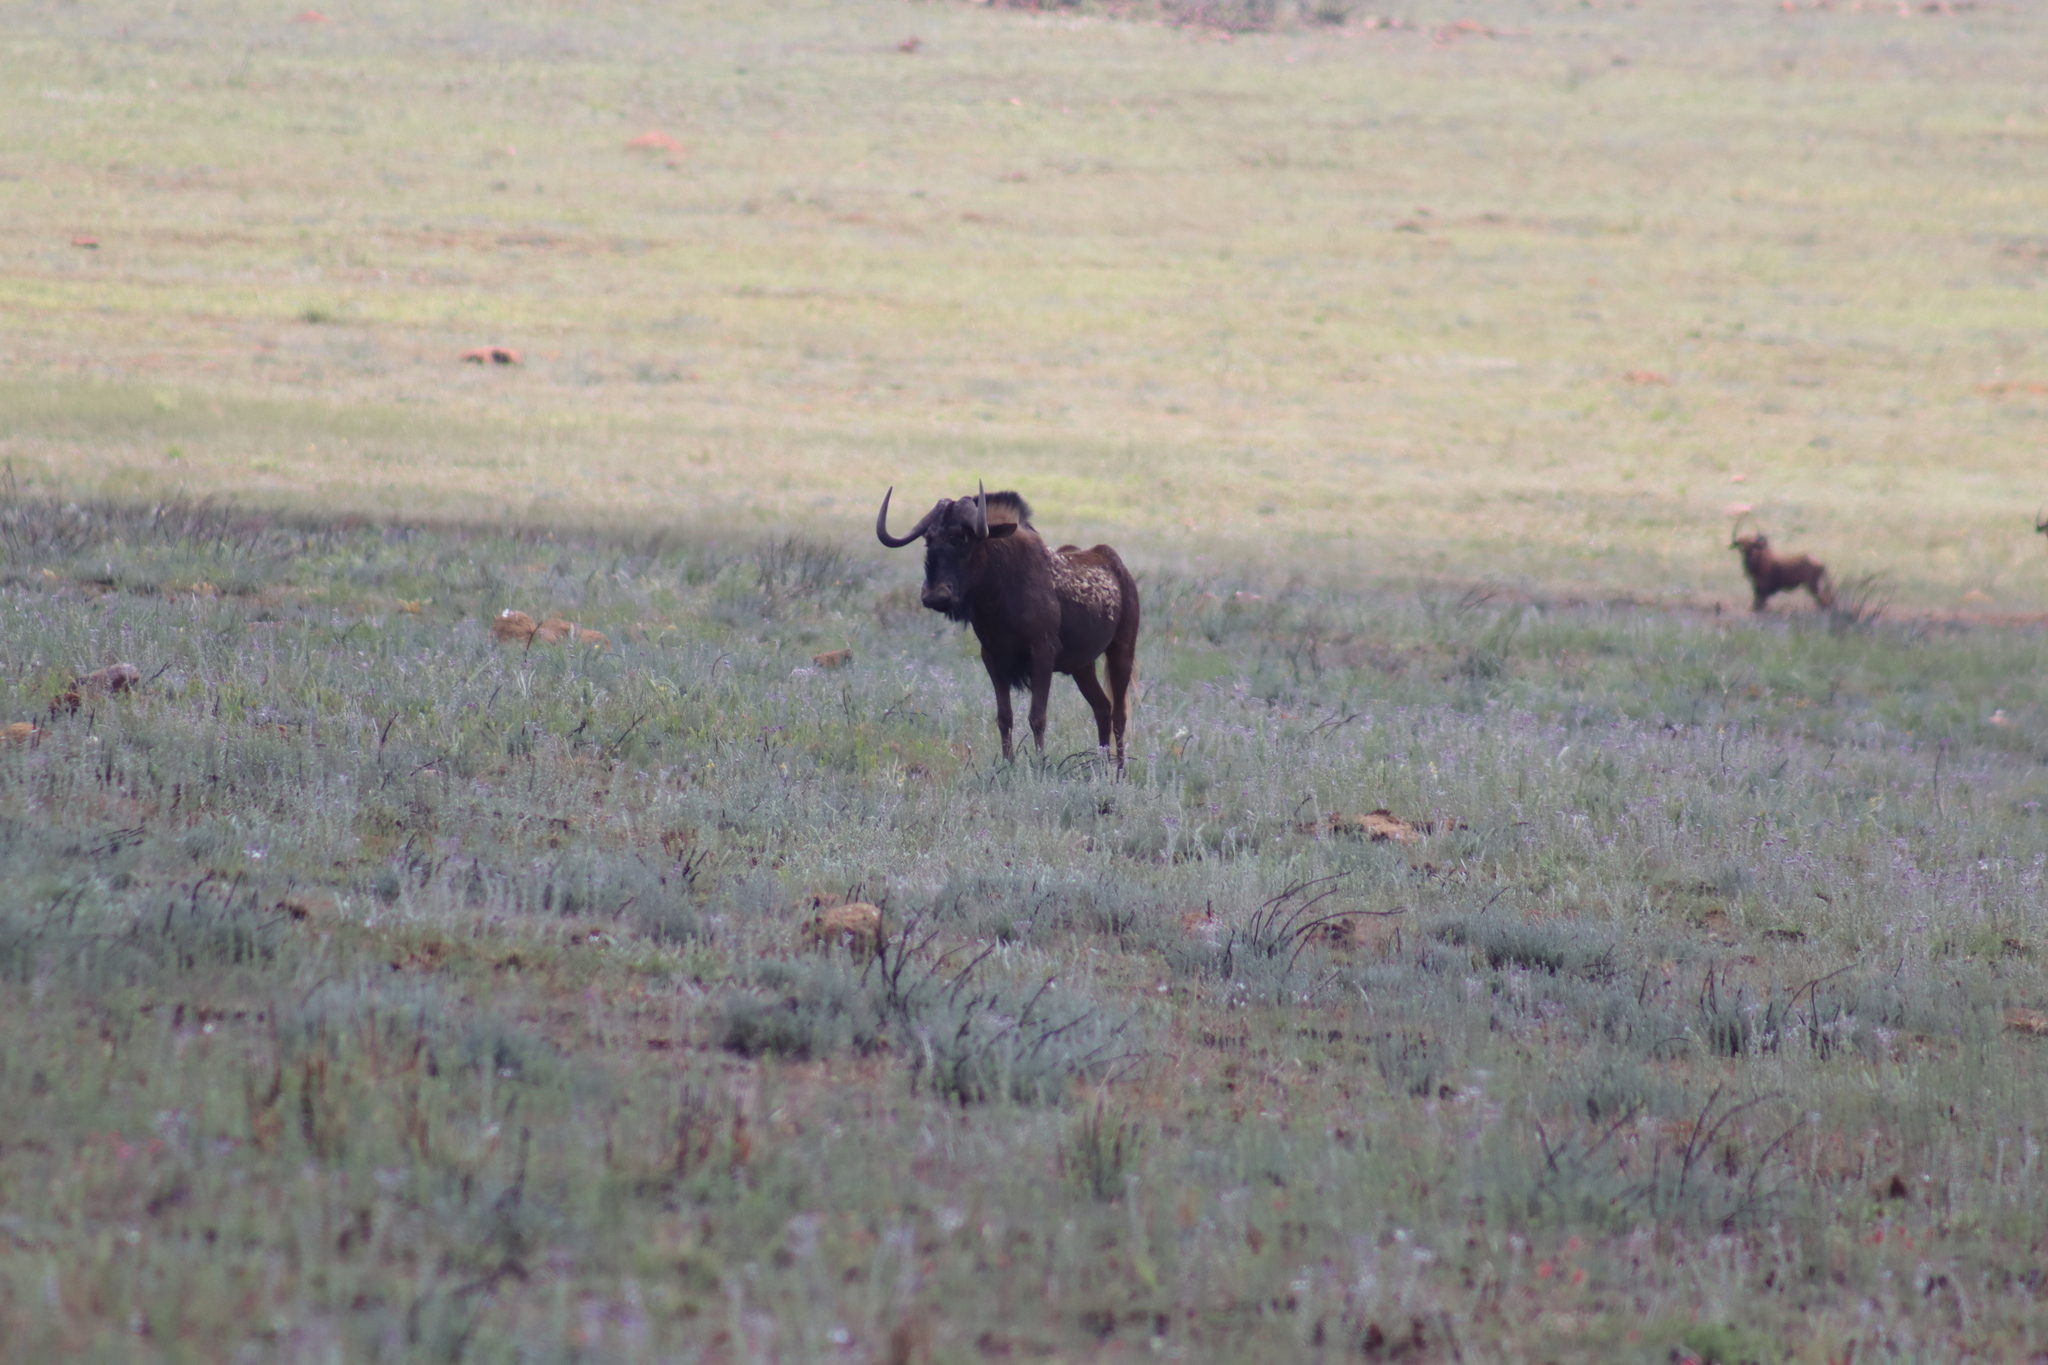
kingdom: Animalia
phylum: Chordata
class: Mammalia
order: Artiodactyla
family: Bovidae
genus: Connochaetes
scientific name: Connochaetes gnou
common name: Black wildebeest
